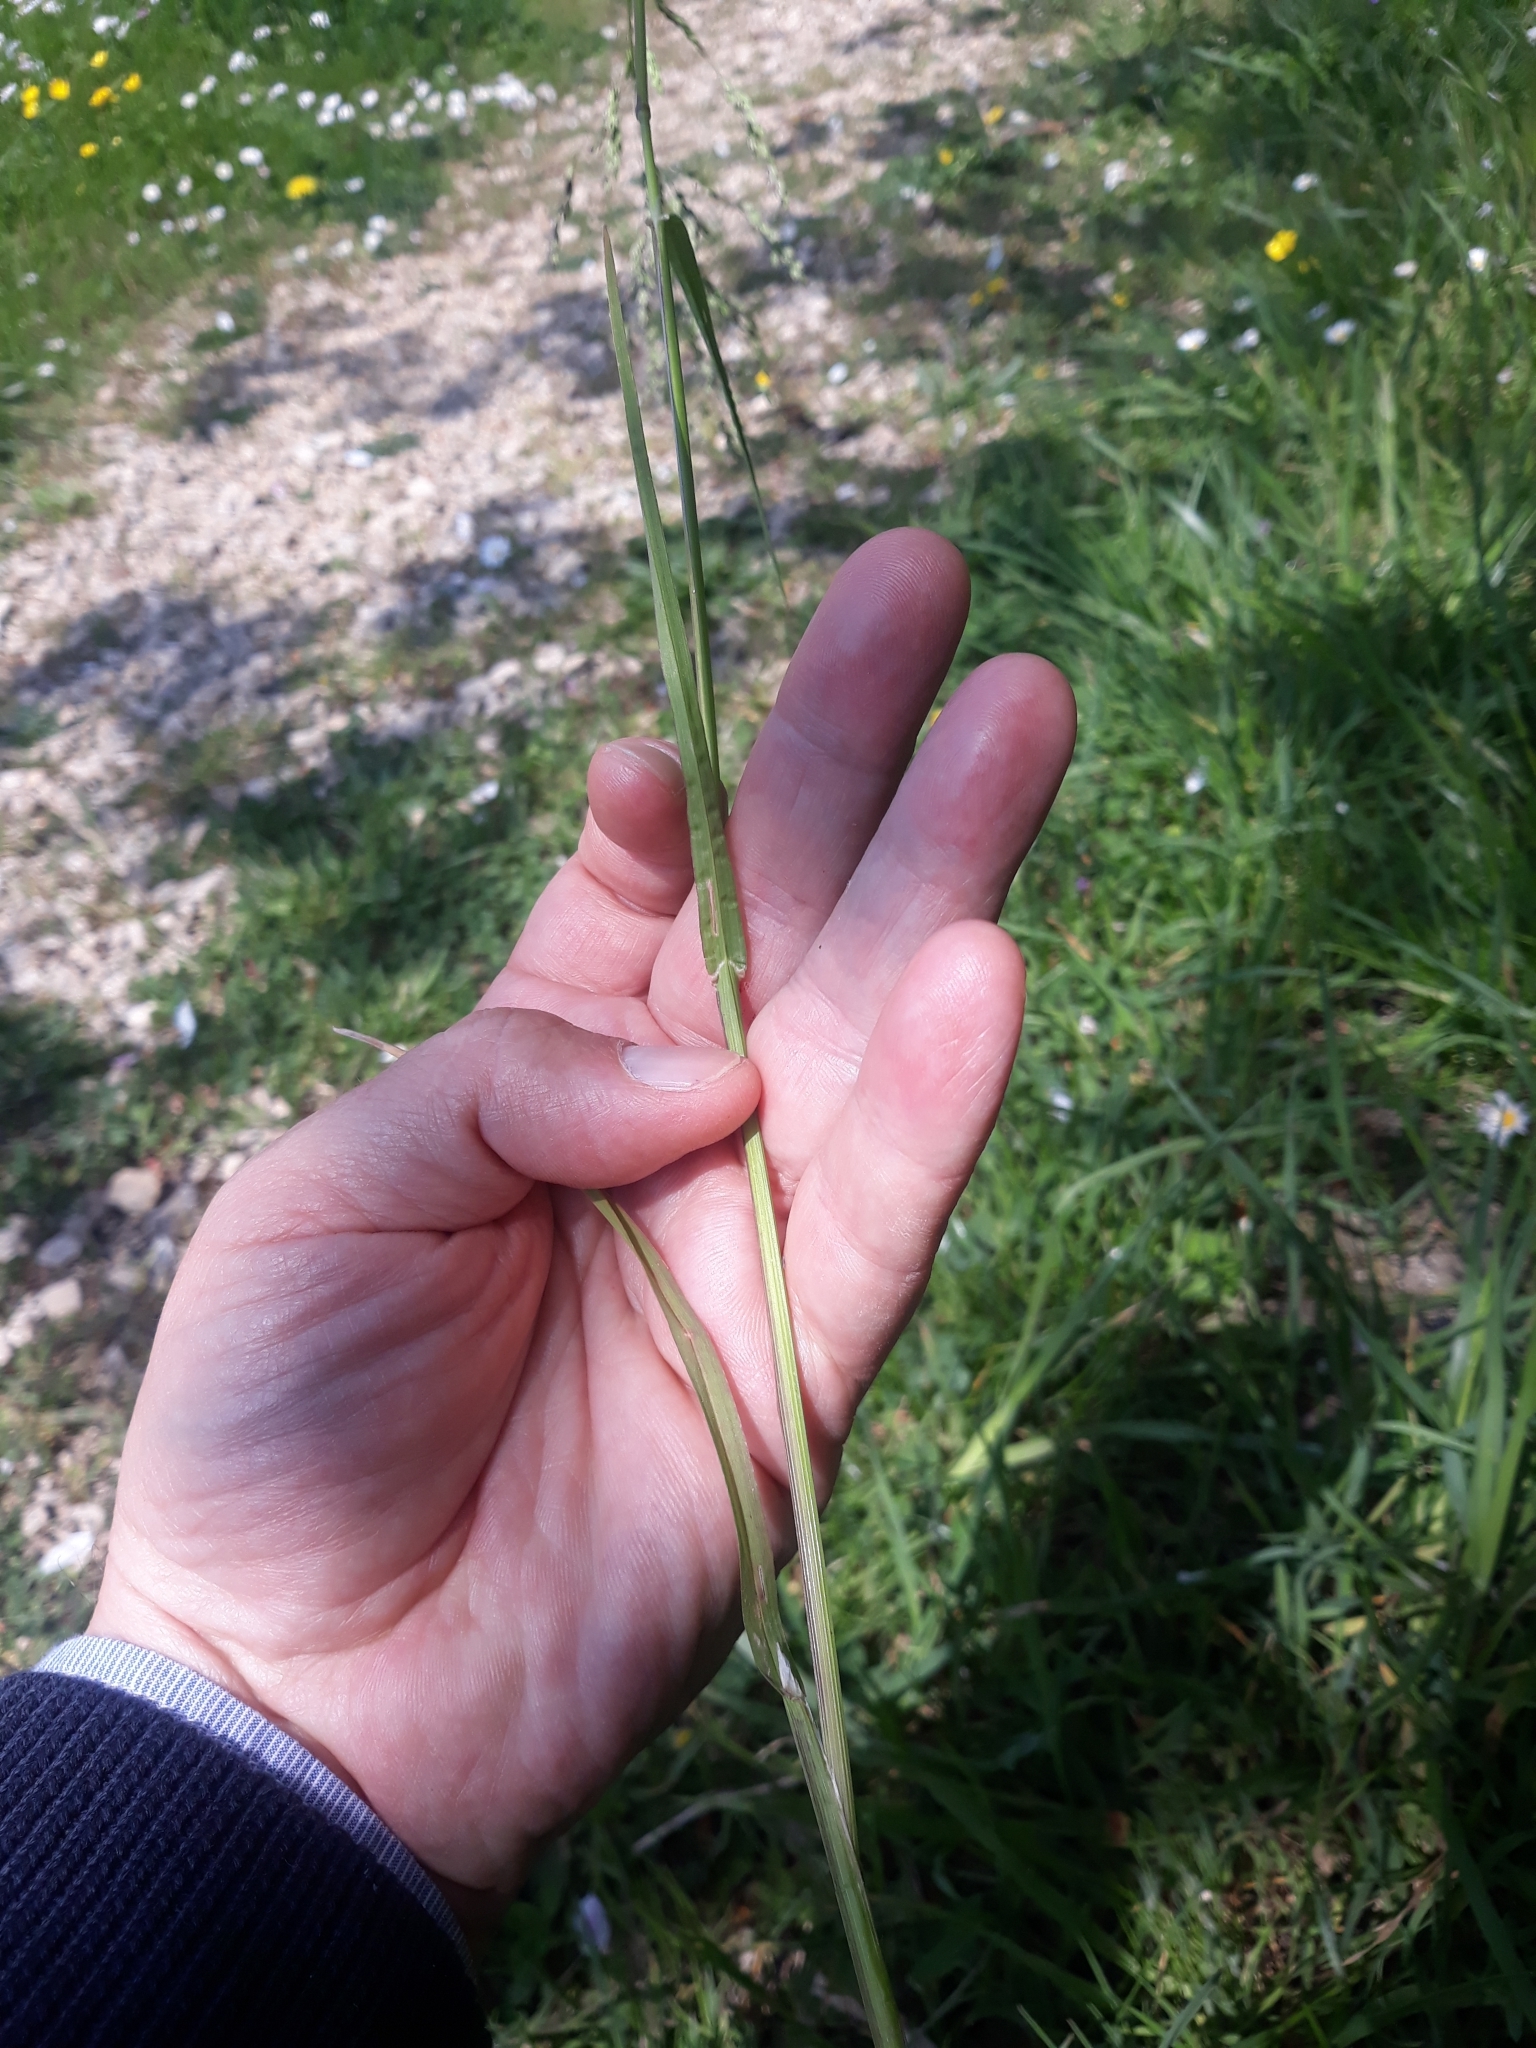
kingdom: Plantae
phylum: Tracheophyta
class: Liliopsida
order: Poales
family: Poaceae
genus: Poa
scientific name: Poa trivialis
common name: Rough bluegrass
